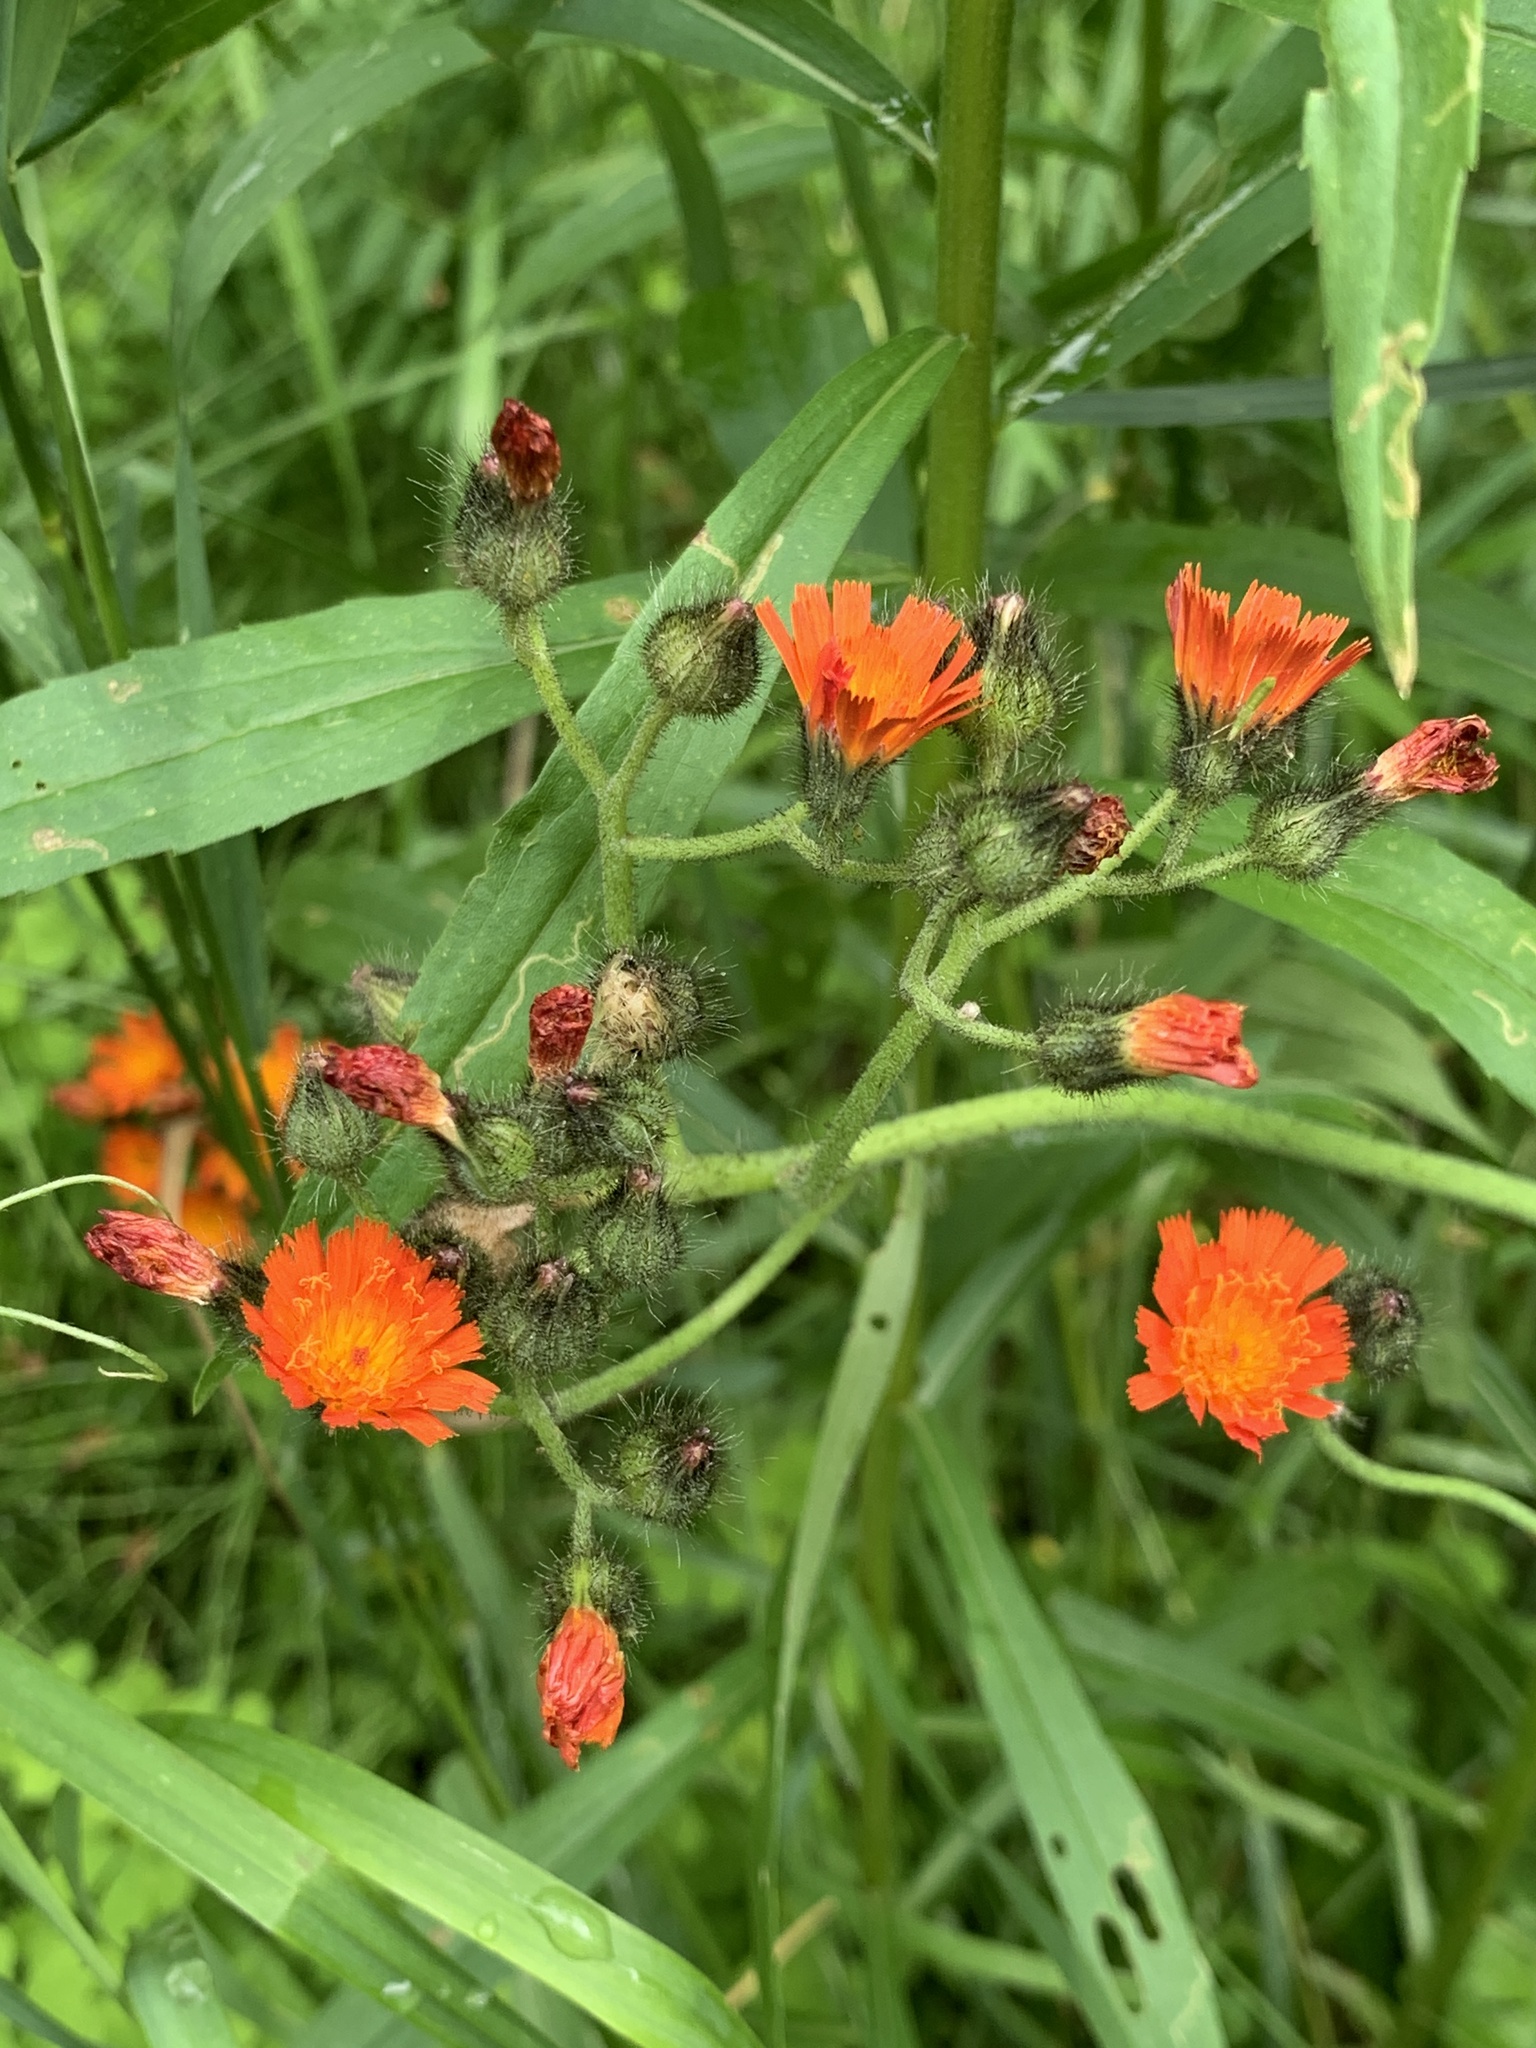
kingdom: Plantae
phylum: Tracheophyta
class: Magnoliopsida
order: Asterales
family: Asteraceae
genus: Pilosella
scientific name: Pilosella aurantiaca
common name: Fox-and-cubs
